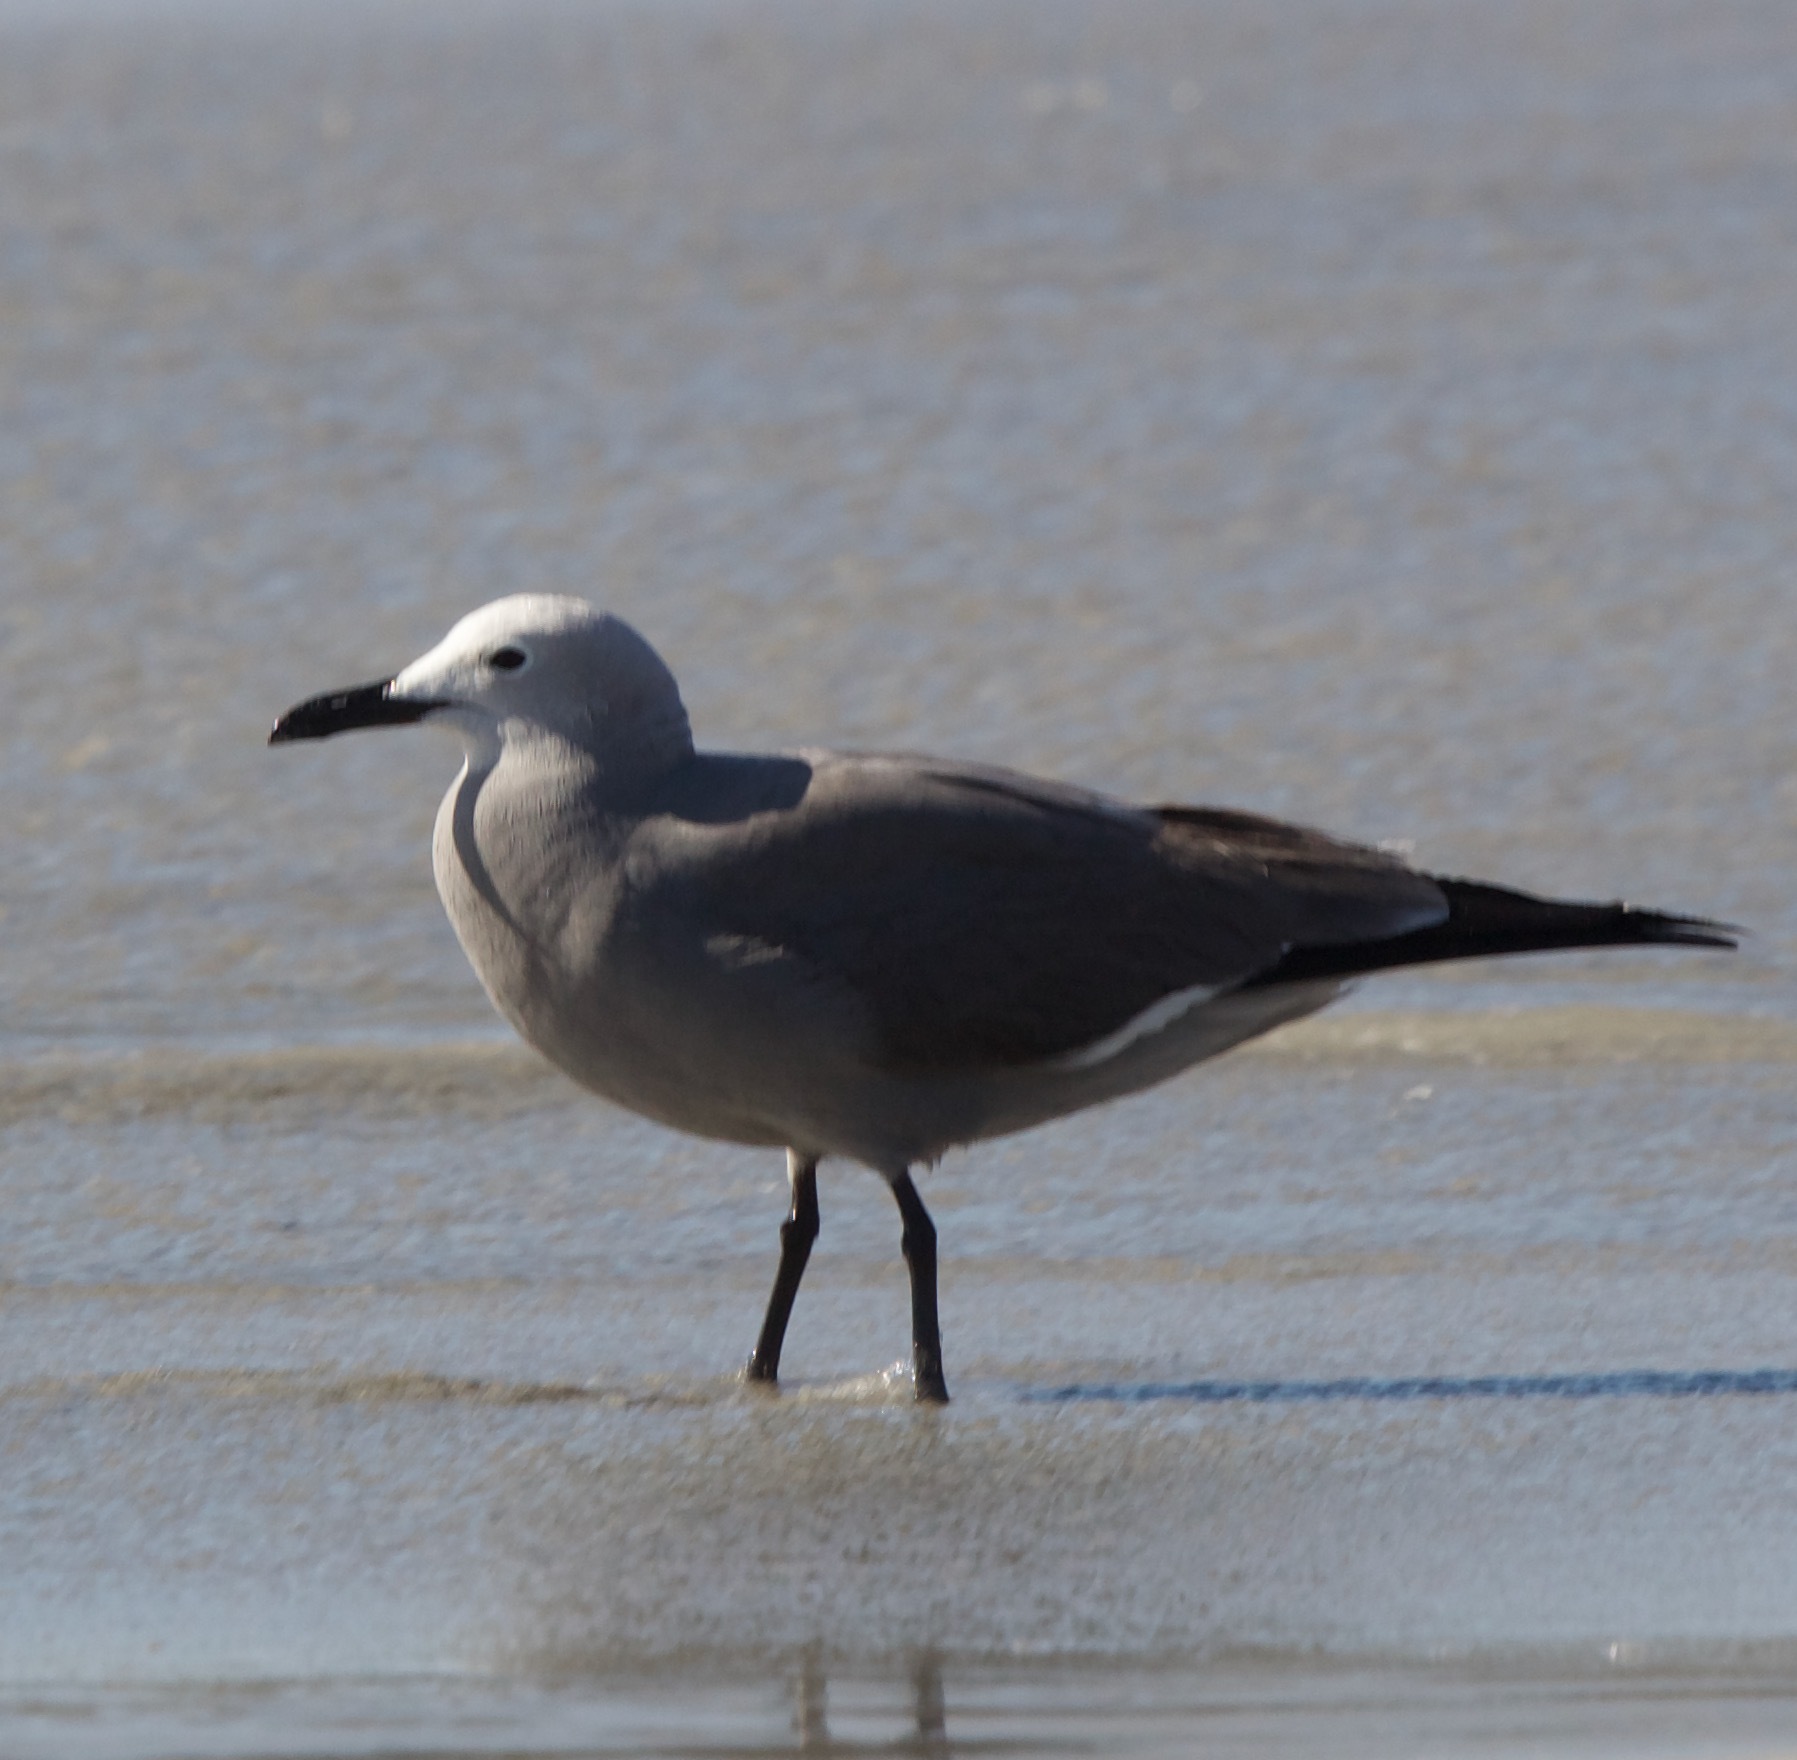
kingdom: Animalia
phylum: Chordata
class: Aves
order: Charadriiformes
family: Laridae
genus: Leucophaeus
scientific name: Leucophaeus modestus
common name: Gray gull
